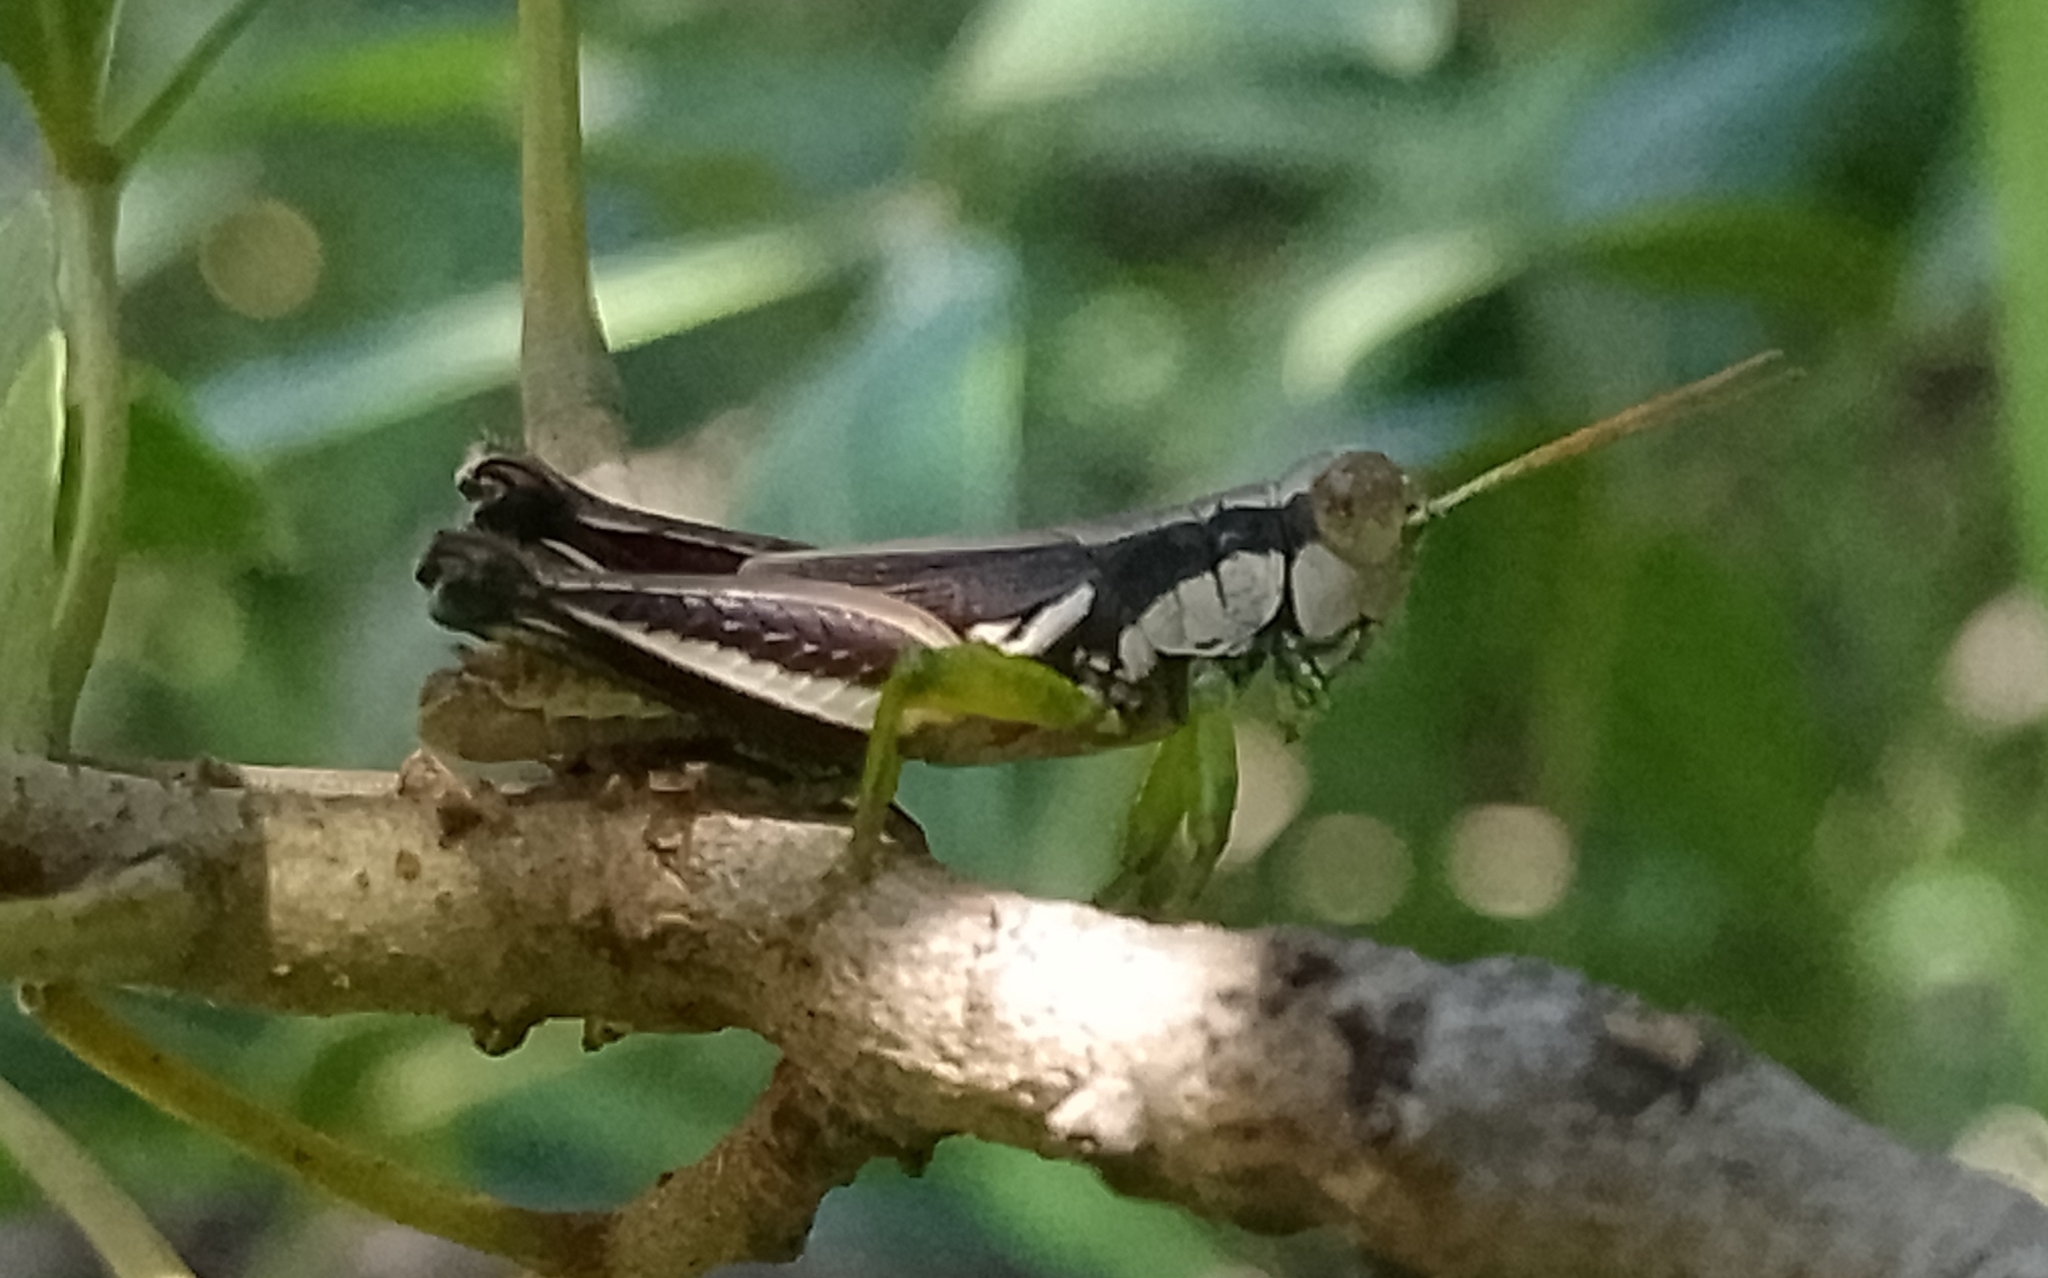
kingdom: Animalia
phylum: Arthropoda
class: Insecta
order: Orthoptera
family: Acrididae
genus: Dichroplus
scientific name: Dichroplus schulzi
